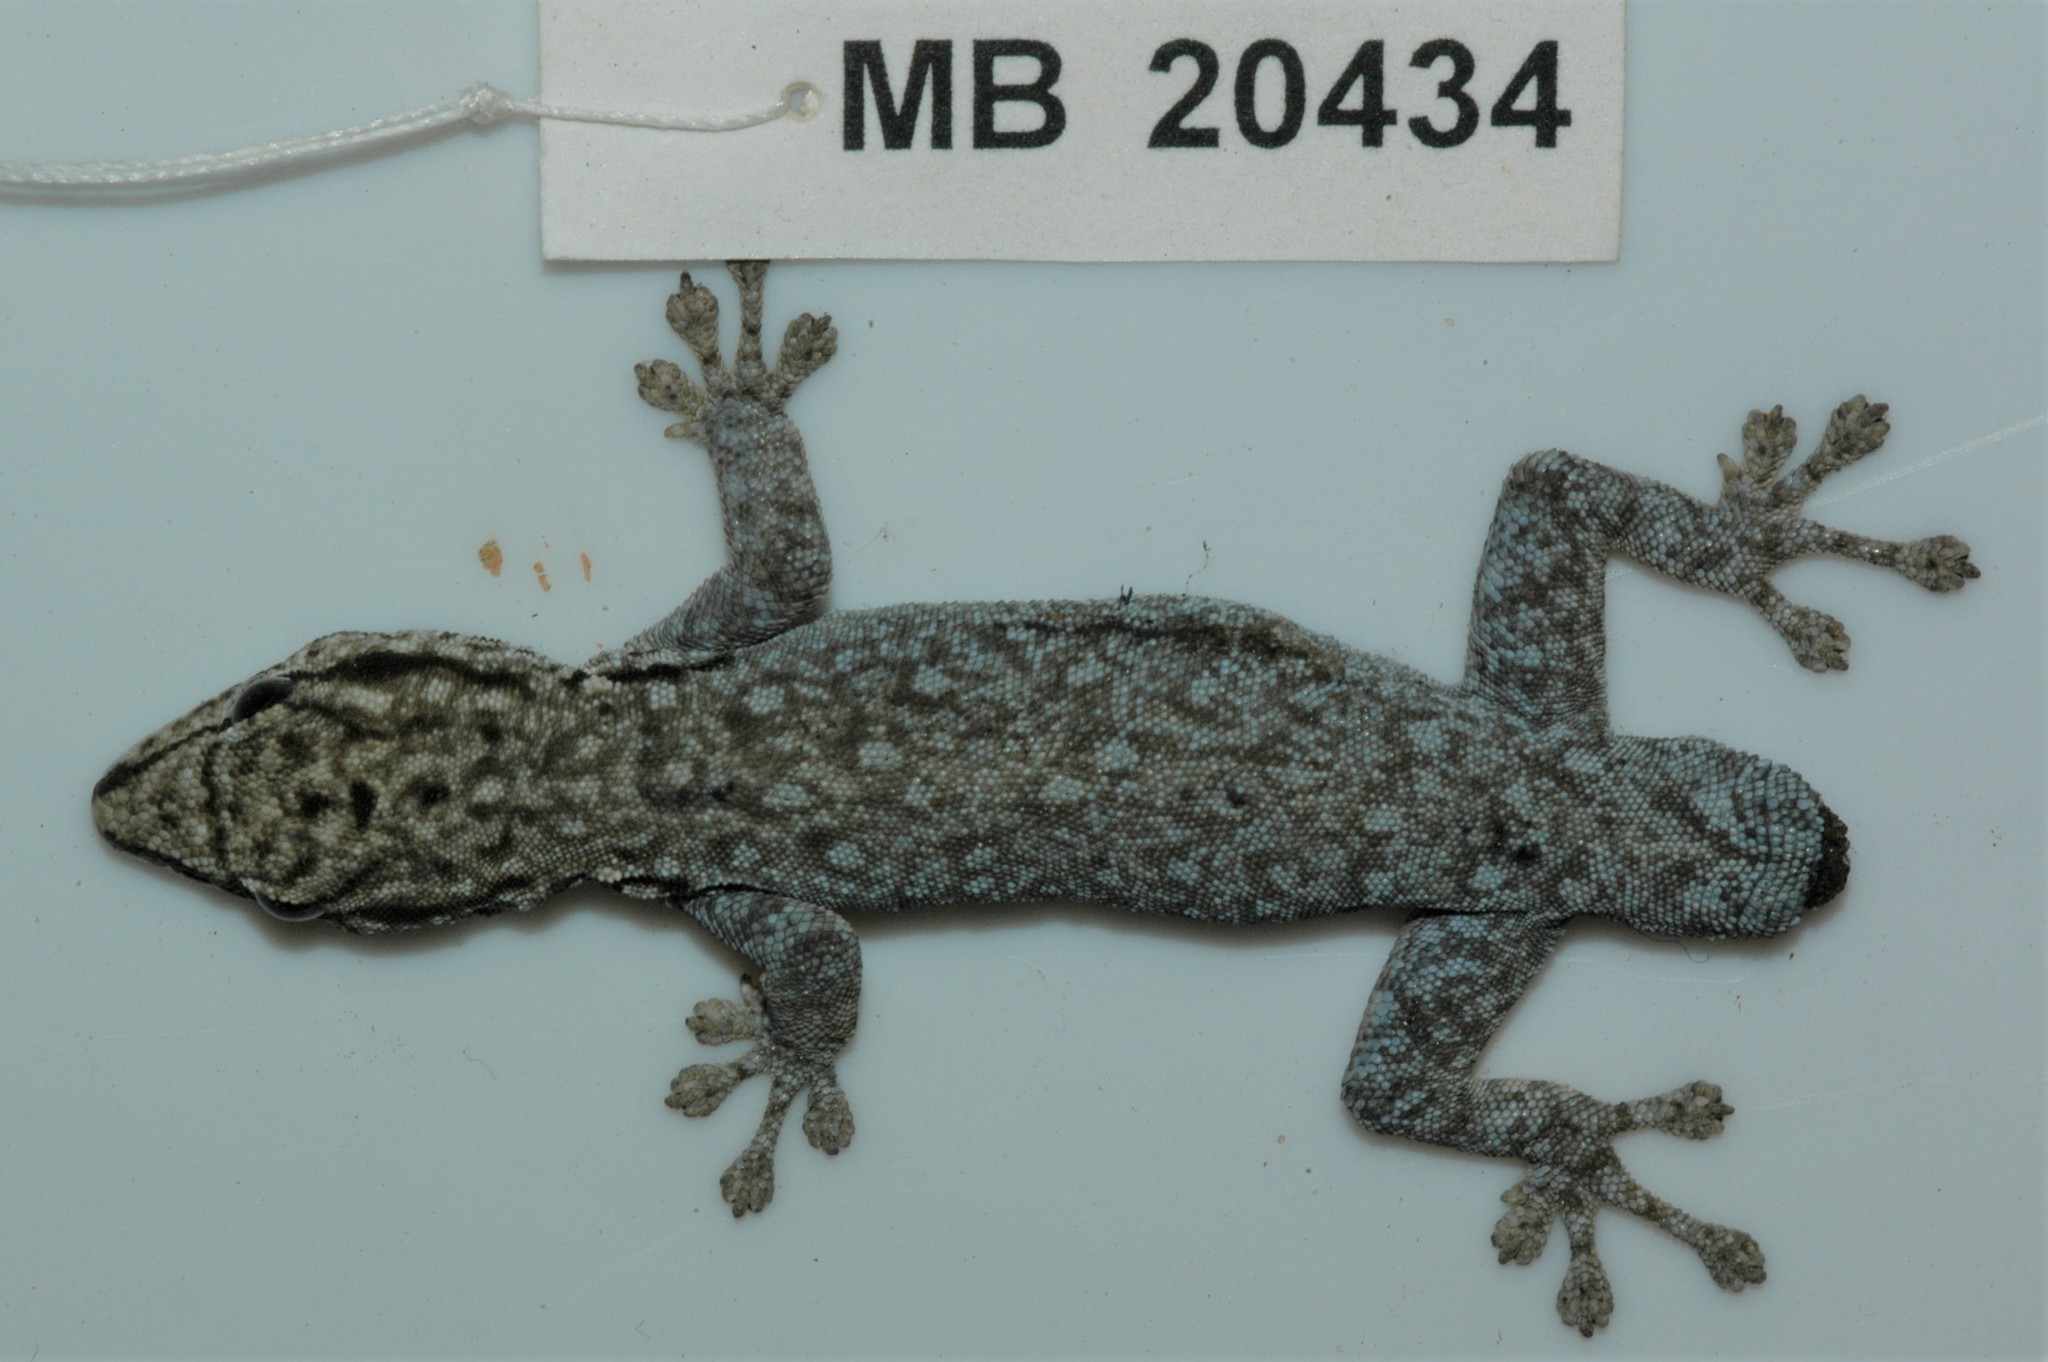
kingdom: Animalia
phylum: Chordata
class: Squamata
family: Gekkonidae
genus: Lygodactylus
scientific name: Lygodactylus chobiensis
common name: Okavango dwarf gecko
